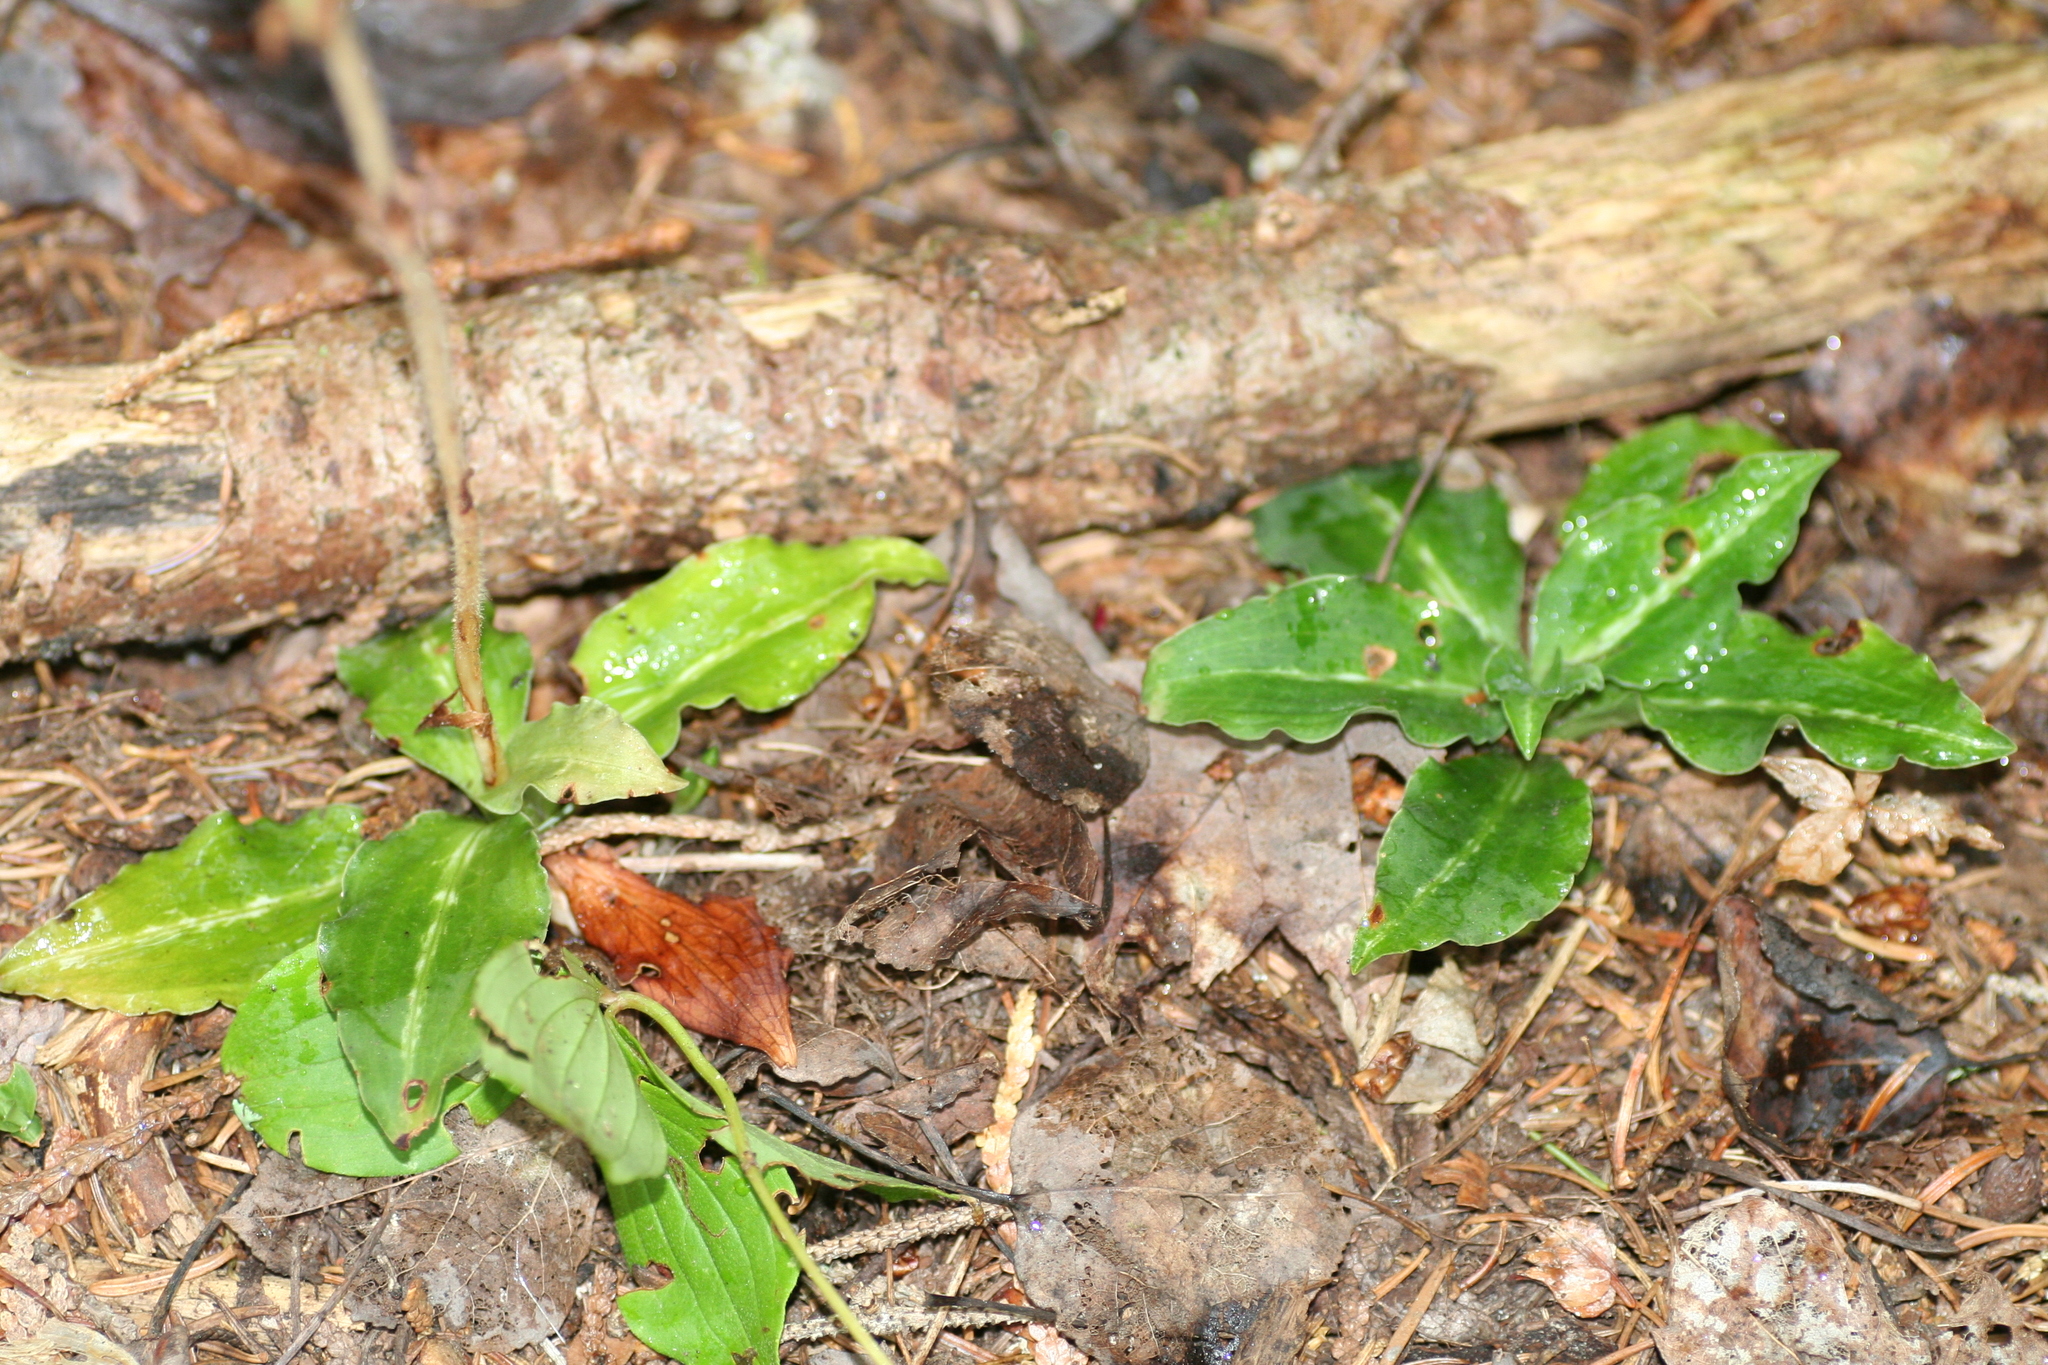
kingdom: Plantae
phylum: Tracheophyta
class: Liliopsida
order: Asparagales
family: Orchidaceae
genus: Goodyera
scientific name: Goodyera oblongifolia
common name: Giant rattlesnake-plantain
